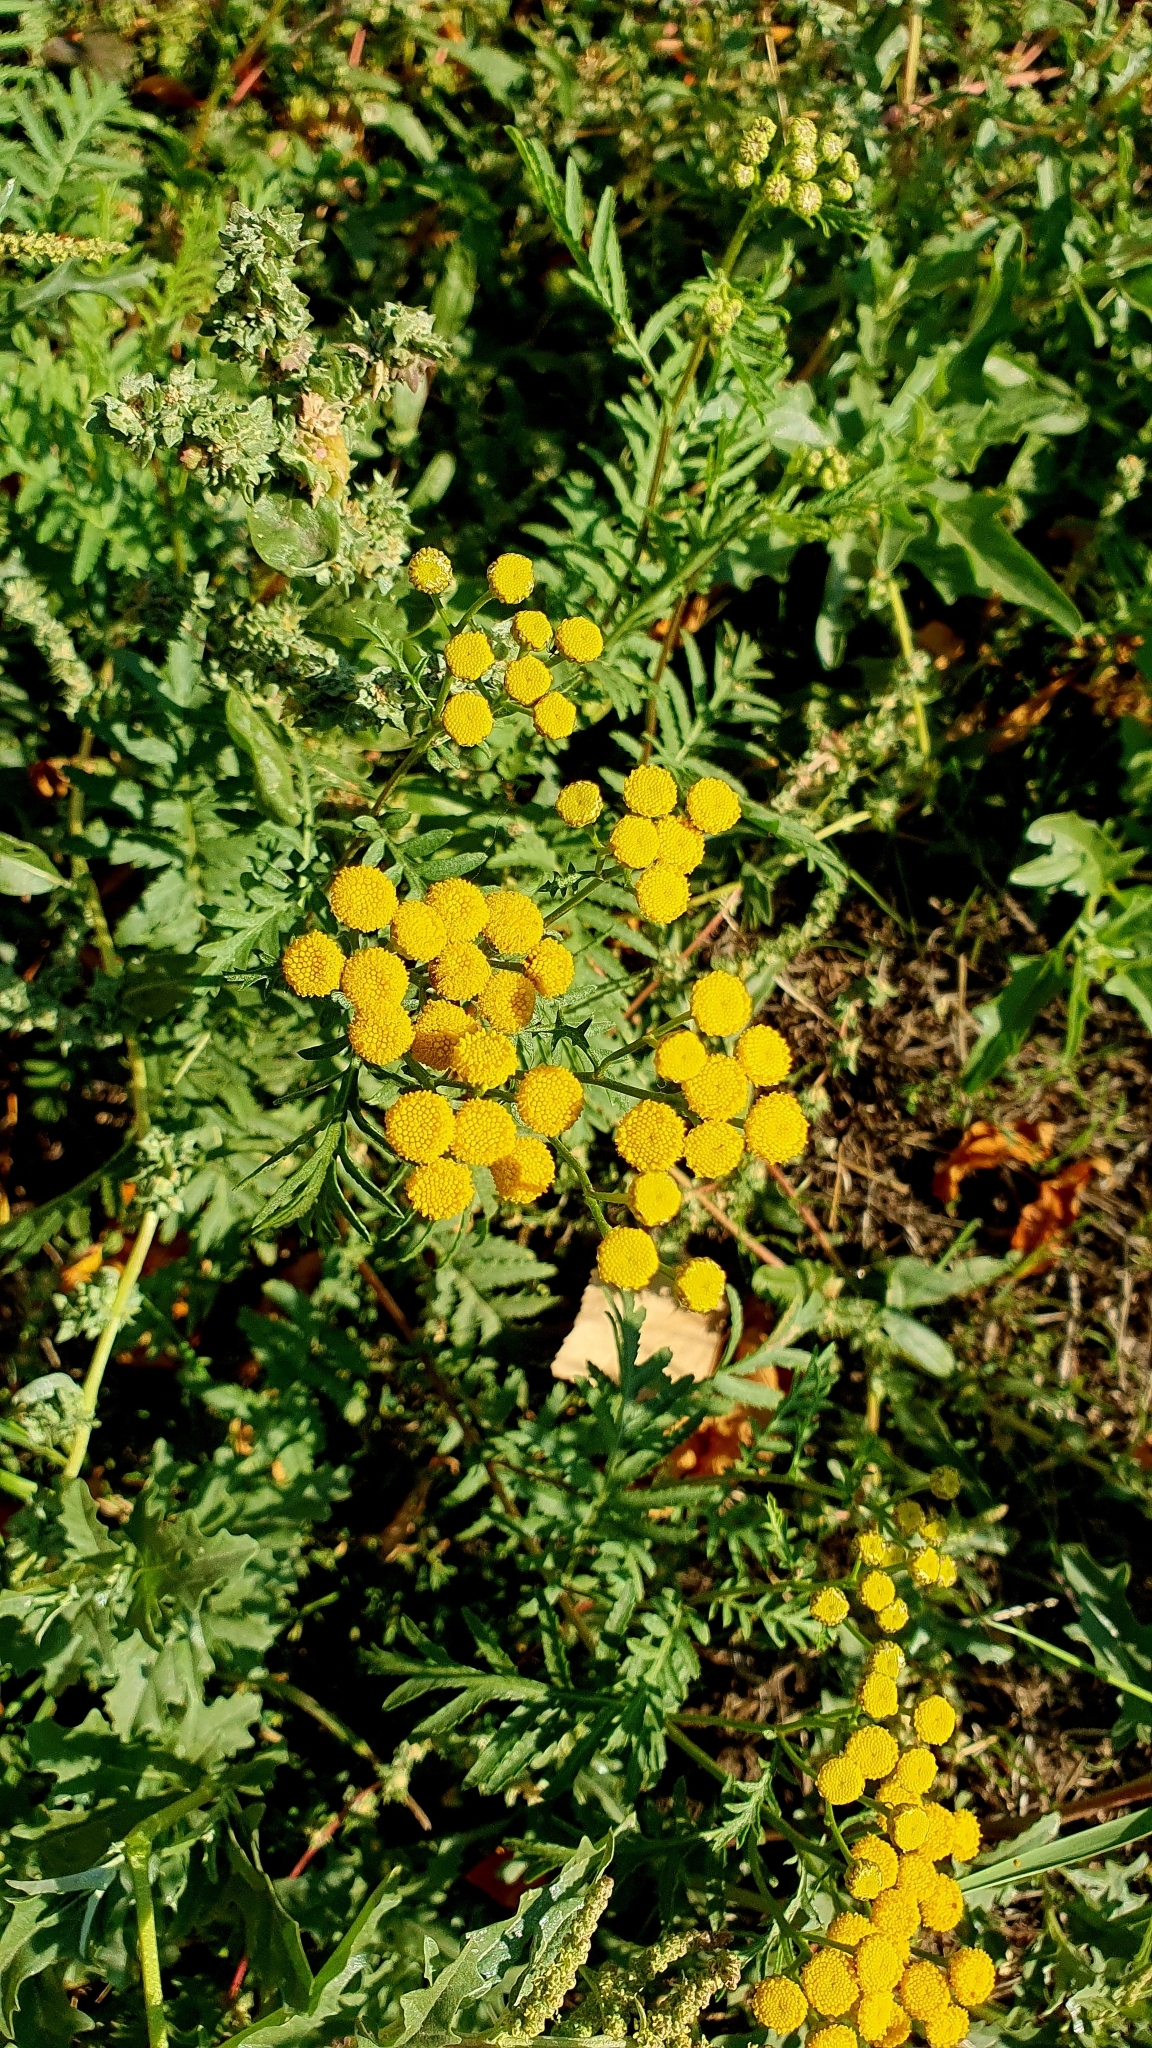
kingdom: Plantae
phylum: Tracheophyta
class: Magnoliopsida
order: Asterales
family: Asteraceae
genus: Tanacetum
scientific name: Tanacetum vulgare
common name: Common tansy
